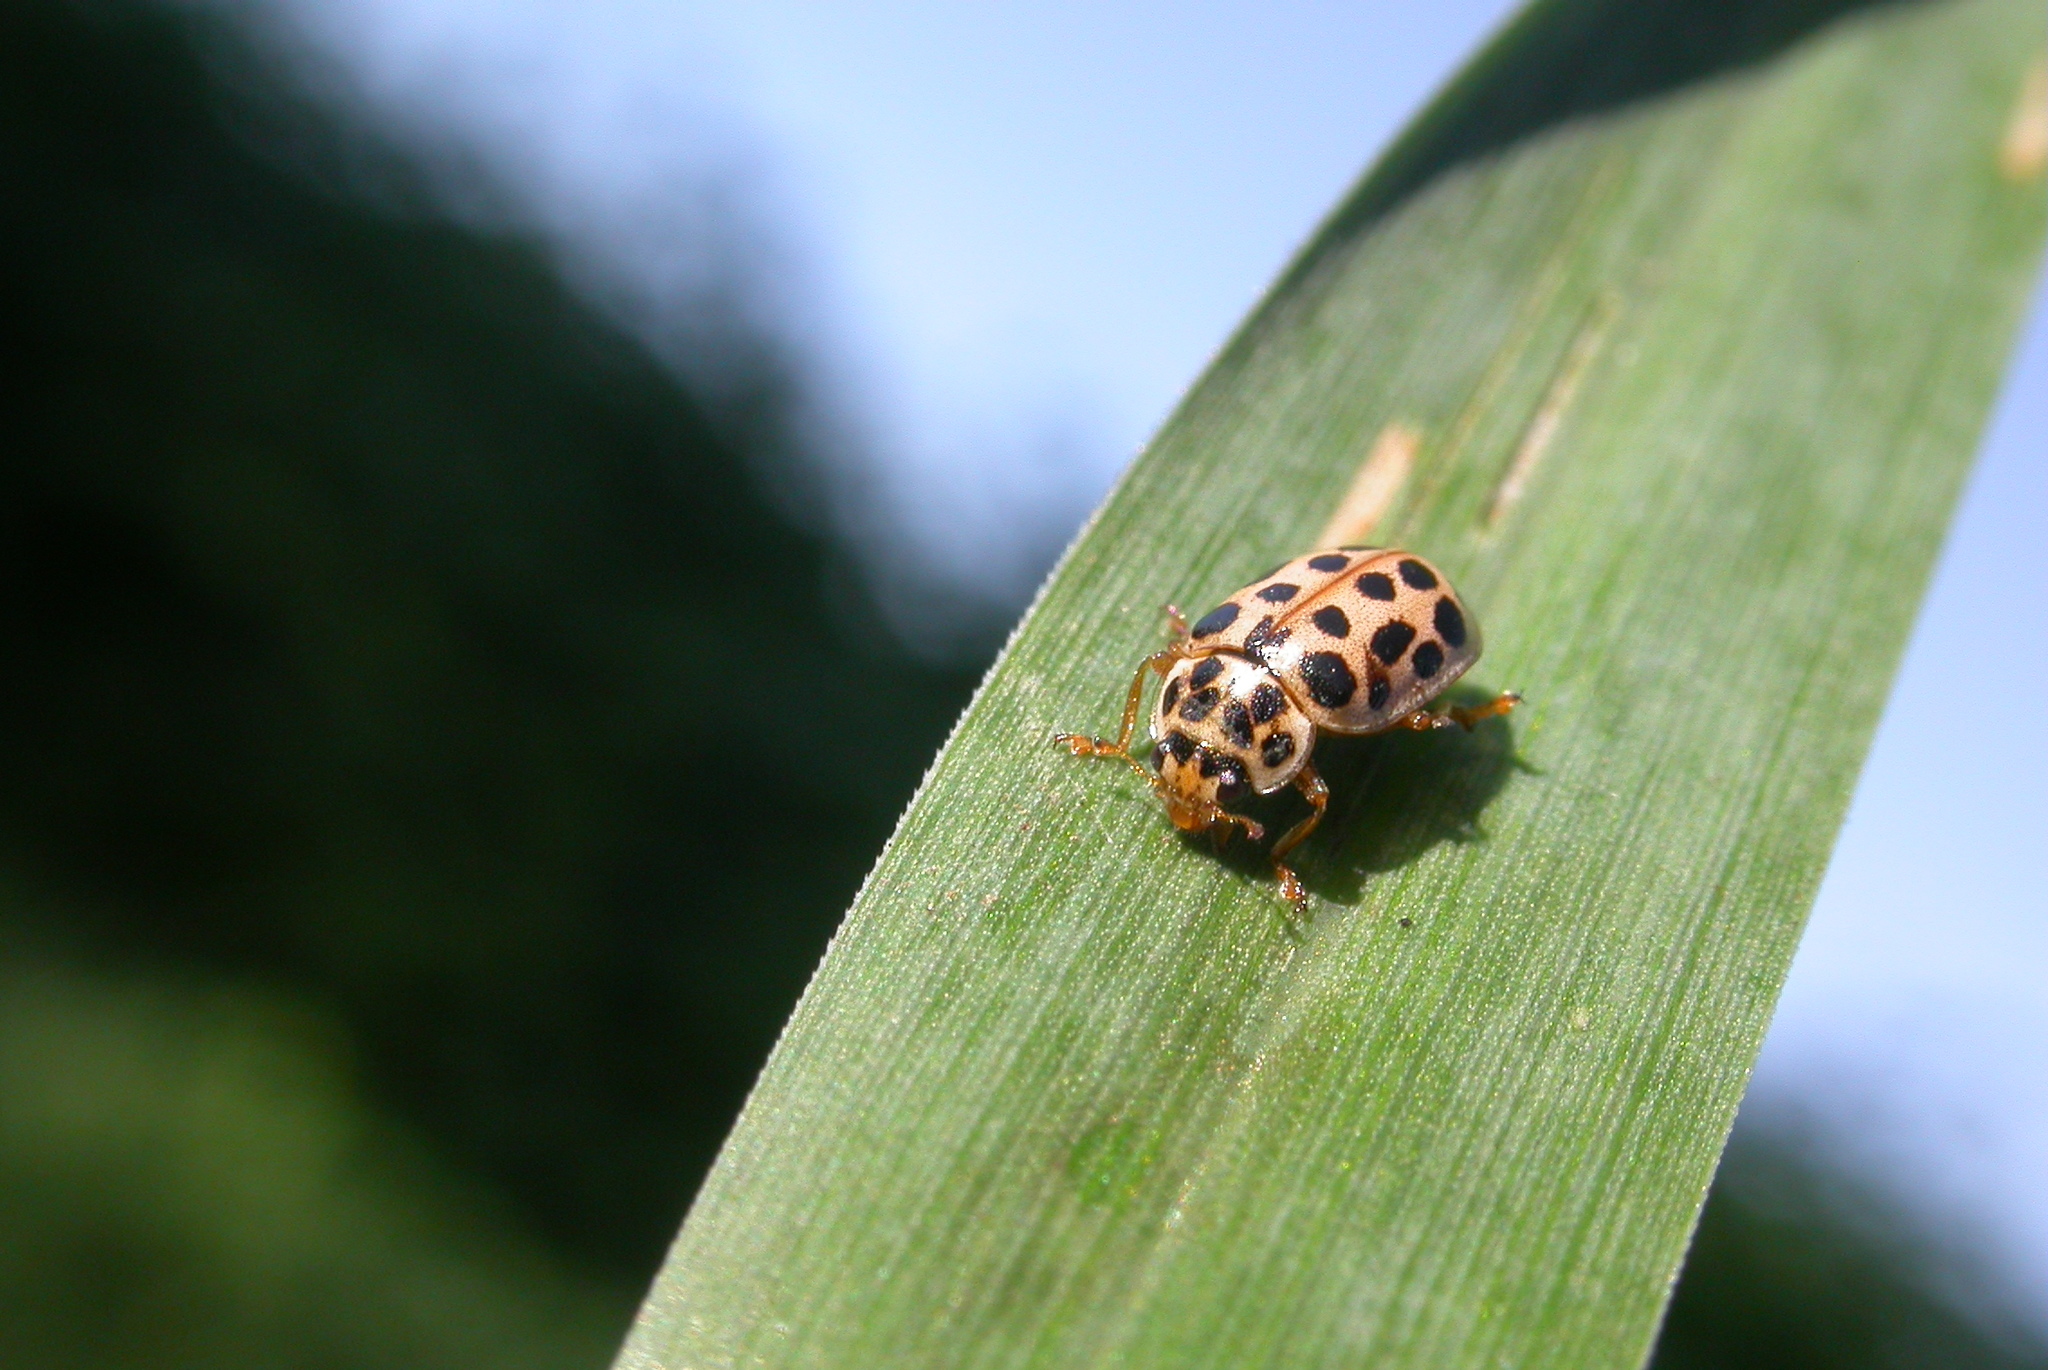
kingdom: Animalia
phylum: Arthropoda
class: Insecta
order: Coleoptera
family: Coccinellidae
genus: Anisosticta
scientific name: Anisosticta novemdecimpunctata
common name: Water ladybird
